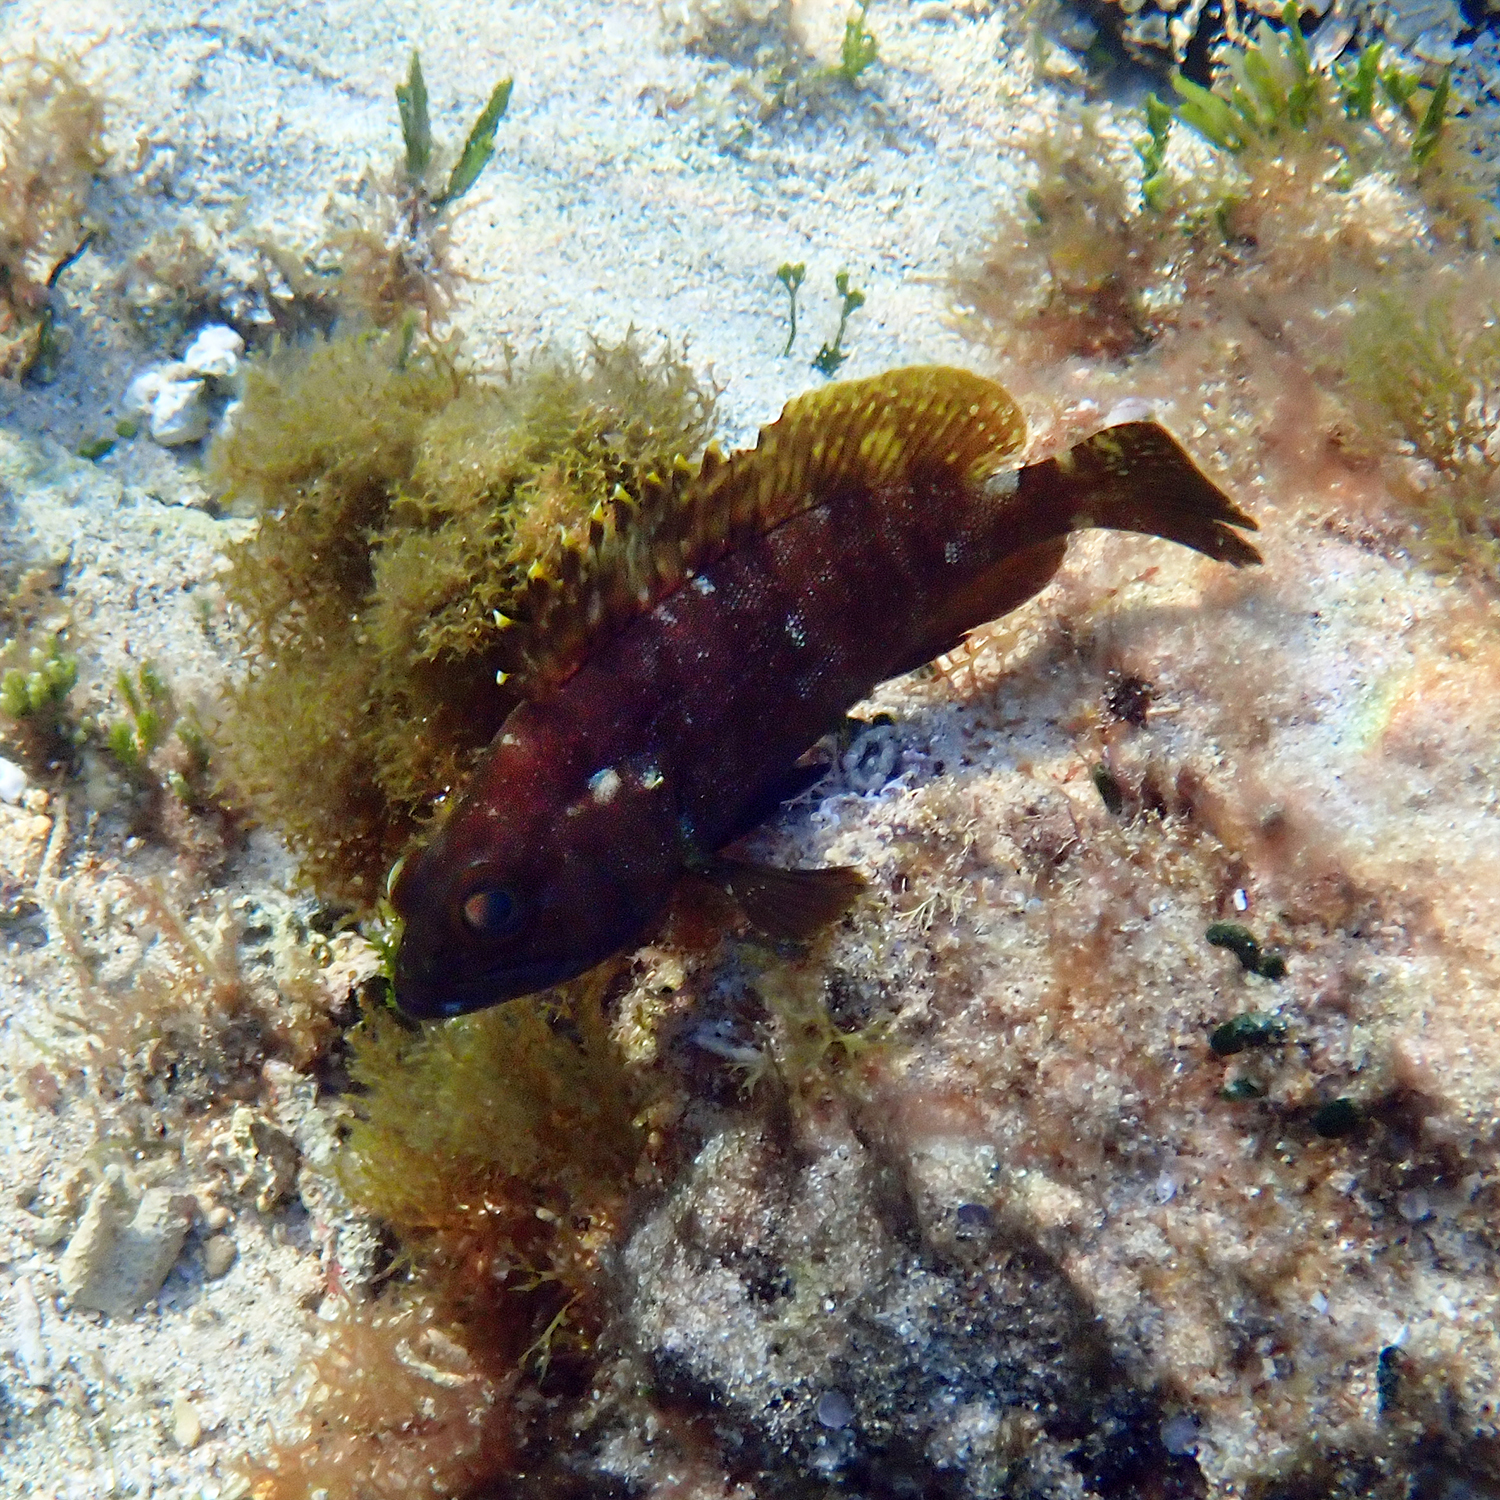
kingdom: Animalia
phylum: Chordata
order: Perciformes
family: Serranidae
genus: Epinephelus
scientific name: Epinephelus rivulatus
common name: Halfmoon grouper
